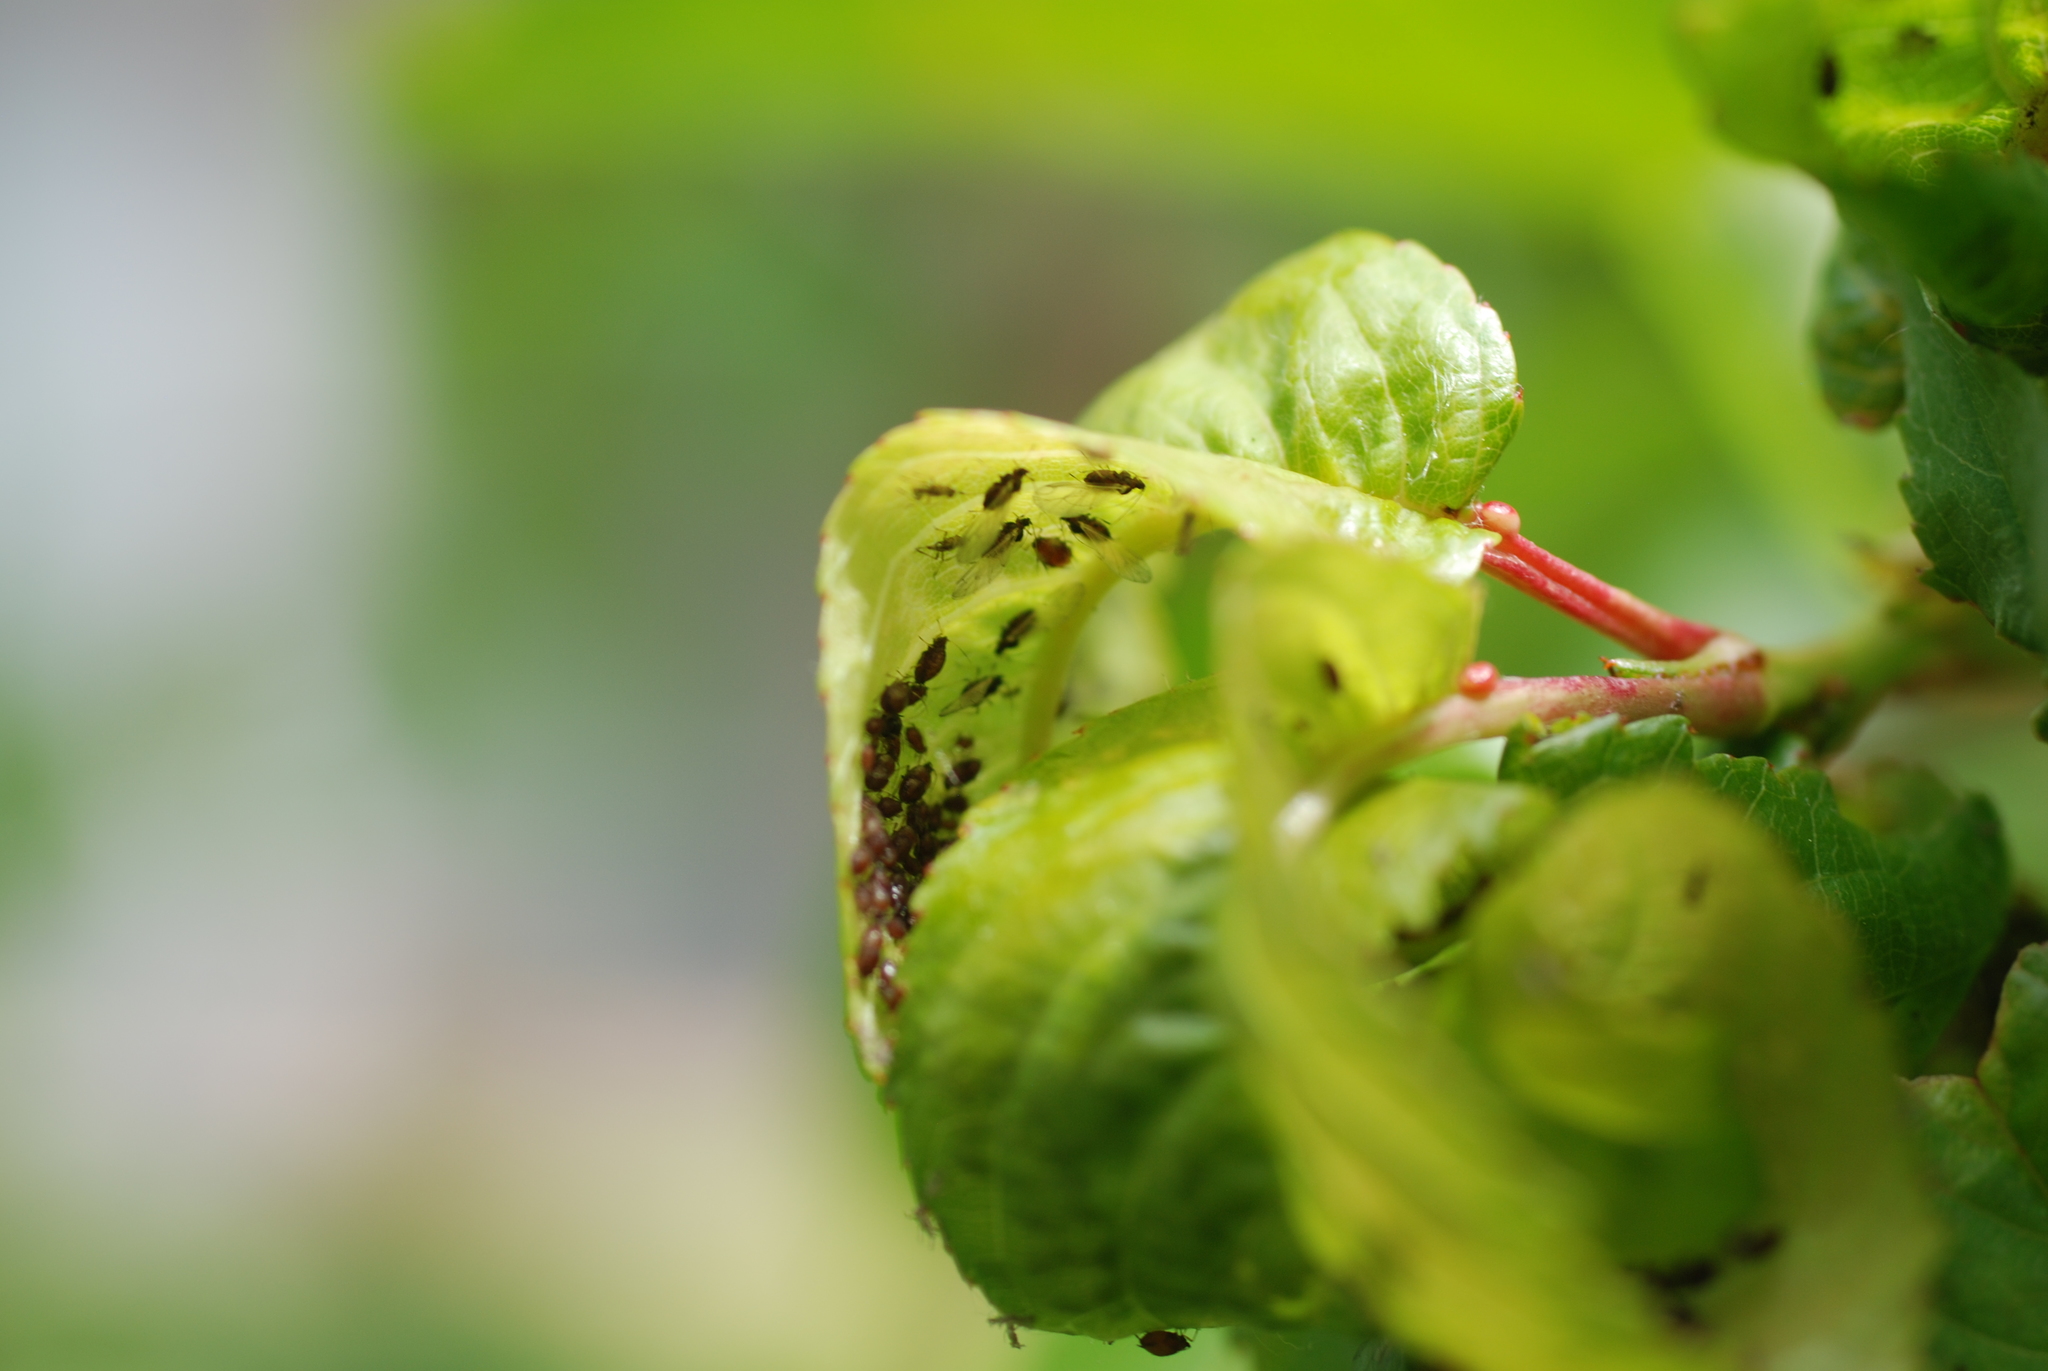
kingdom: Animalia
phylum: Arthropoda
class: Insecta
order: Hemiptera
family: Aphididae
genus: Myzus
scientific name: Myzus cerasi
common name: Black cherry aphid
